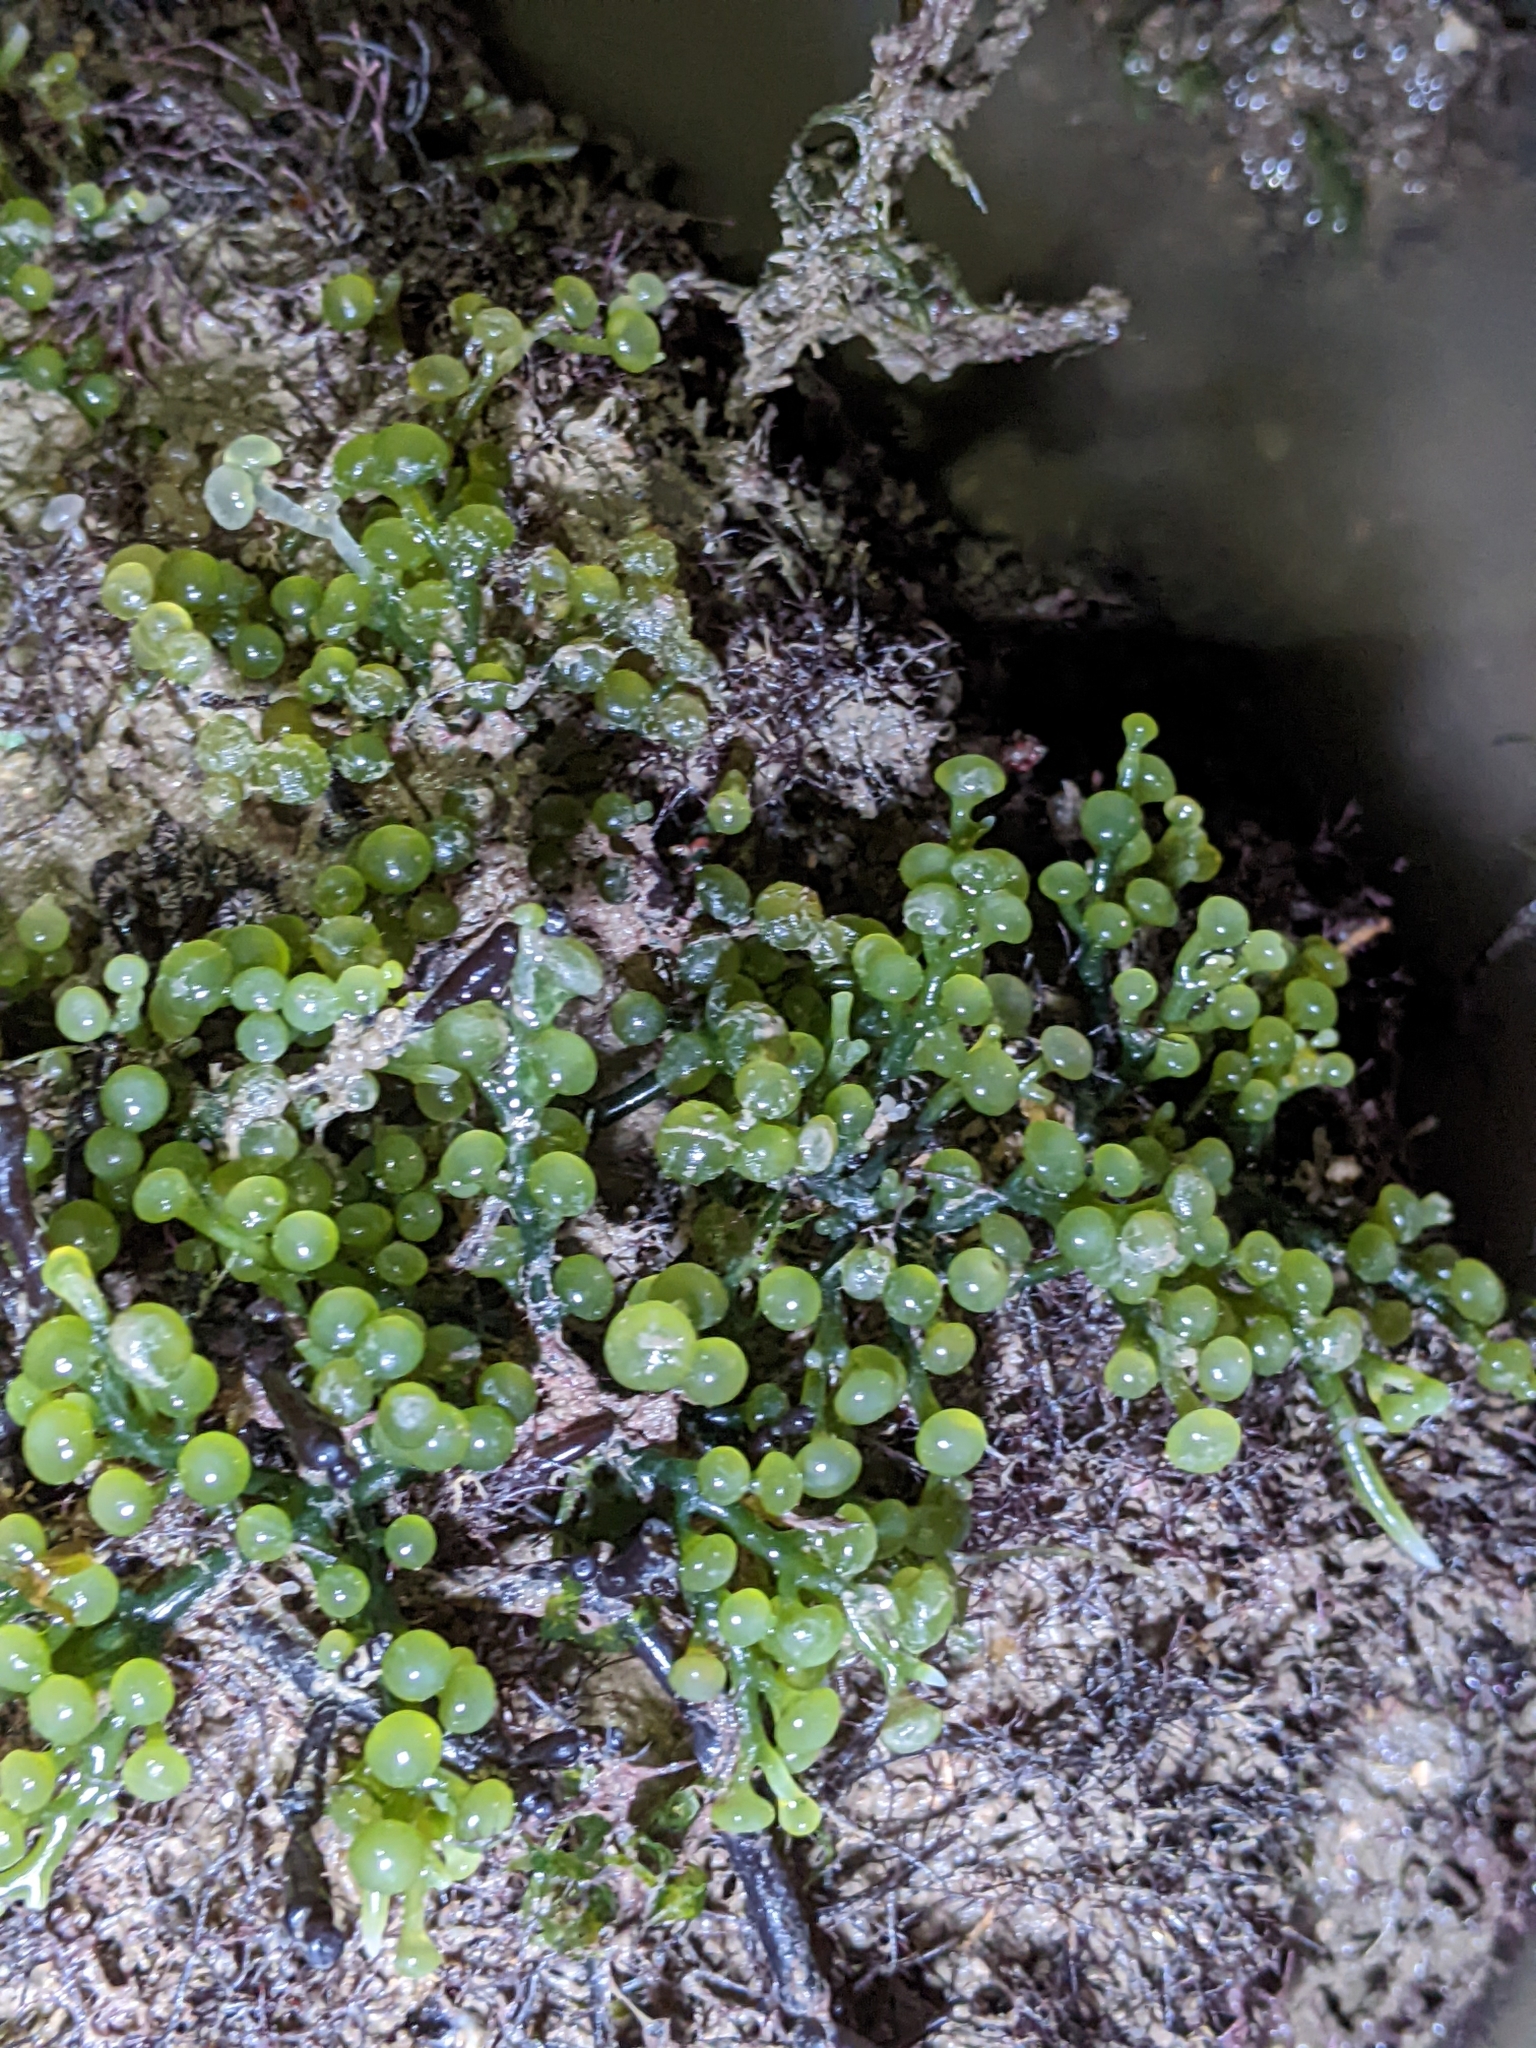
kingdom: Plantae
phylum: Chlorophyta
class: Ulvophyceae
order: Bryopsidales
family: Caulerpaceae
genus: Caulerpa
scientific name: Caulerpa racemosa
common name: Green grape algae
